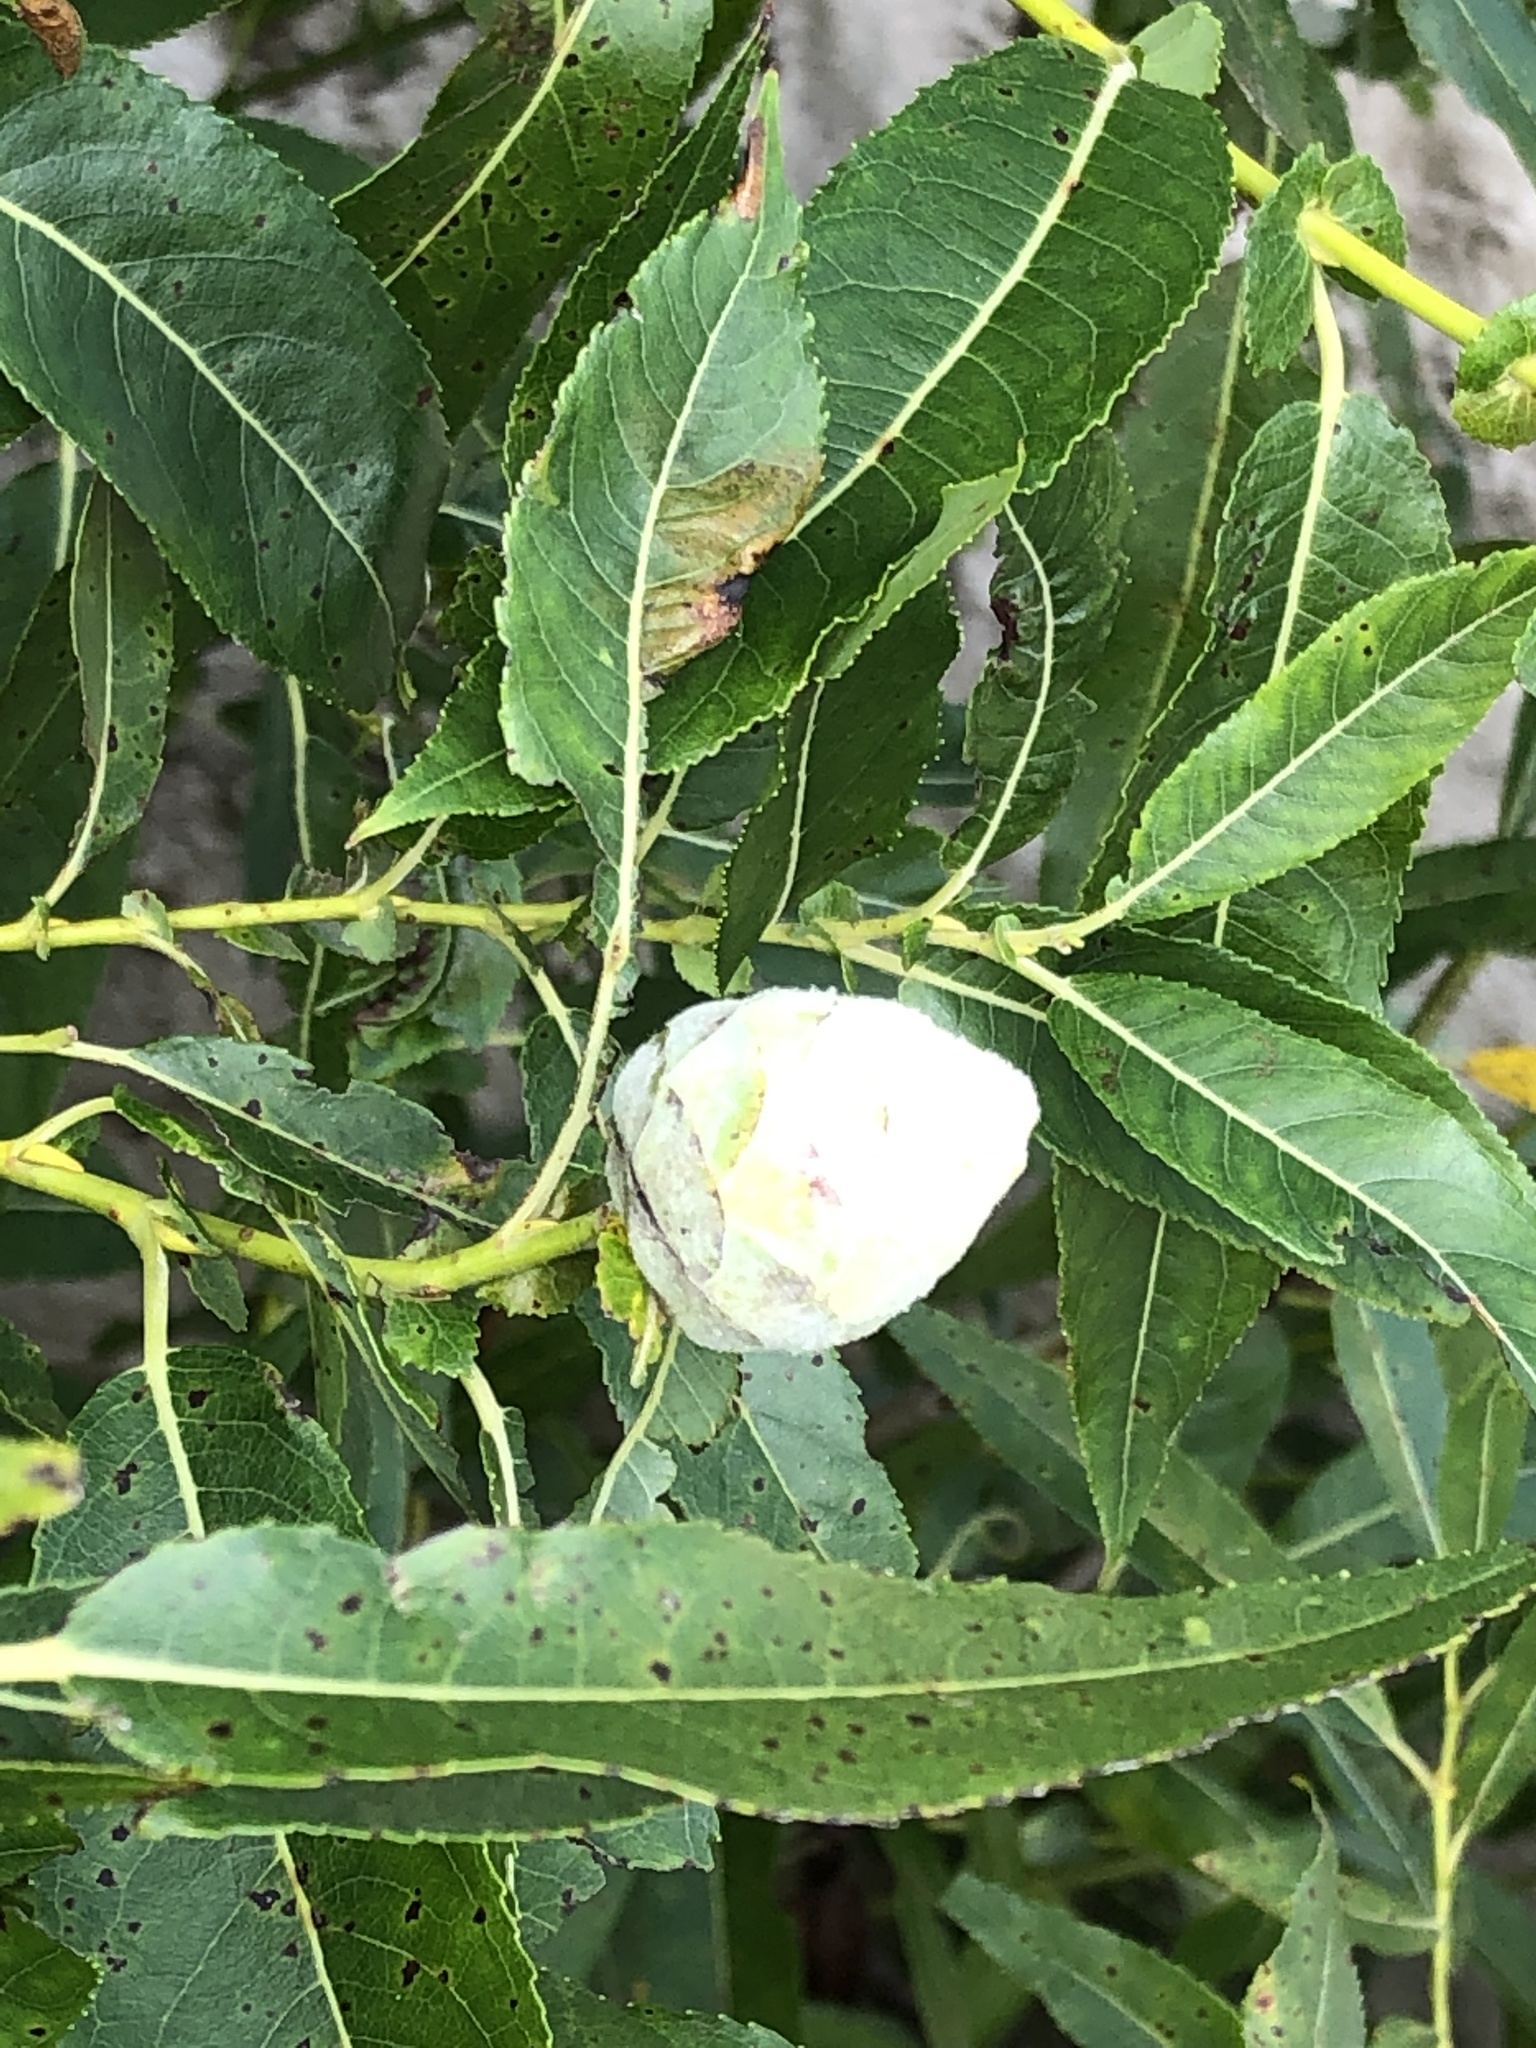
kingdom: Animalia
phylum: Arthropoda
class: Insecta
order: Diptera
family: Cecidomyiidae
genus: Rabdophaga
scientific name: Rabdophaga strobiloides
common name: Willow pinecone gall midge
